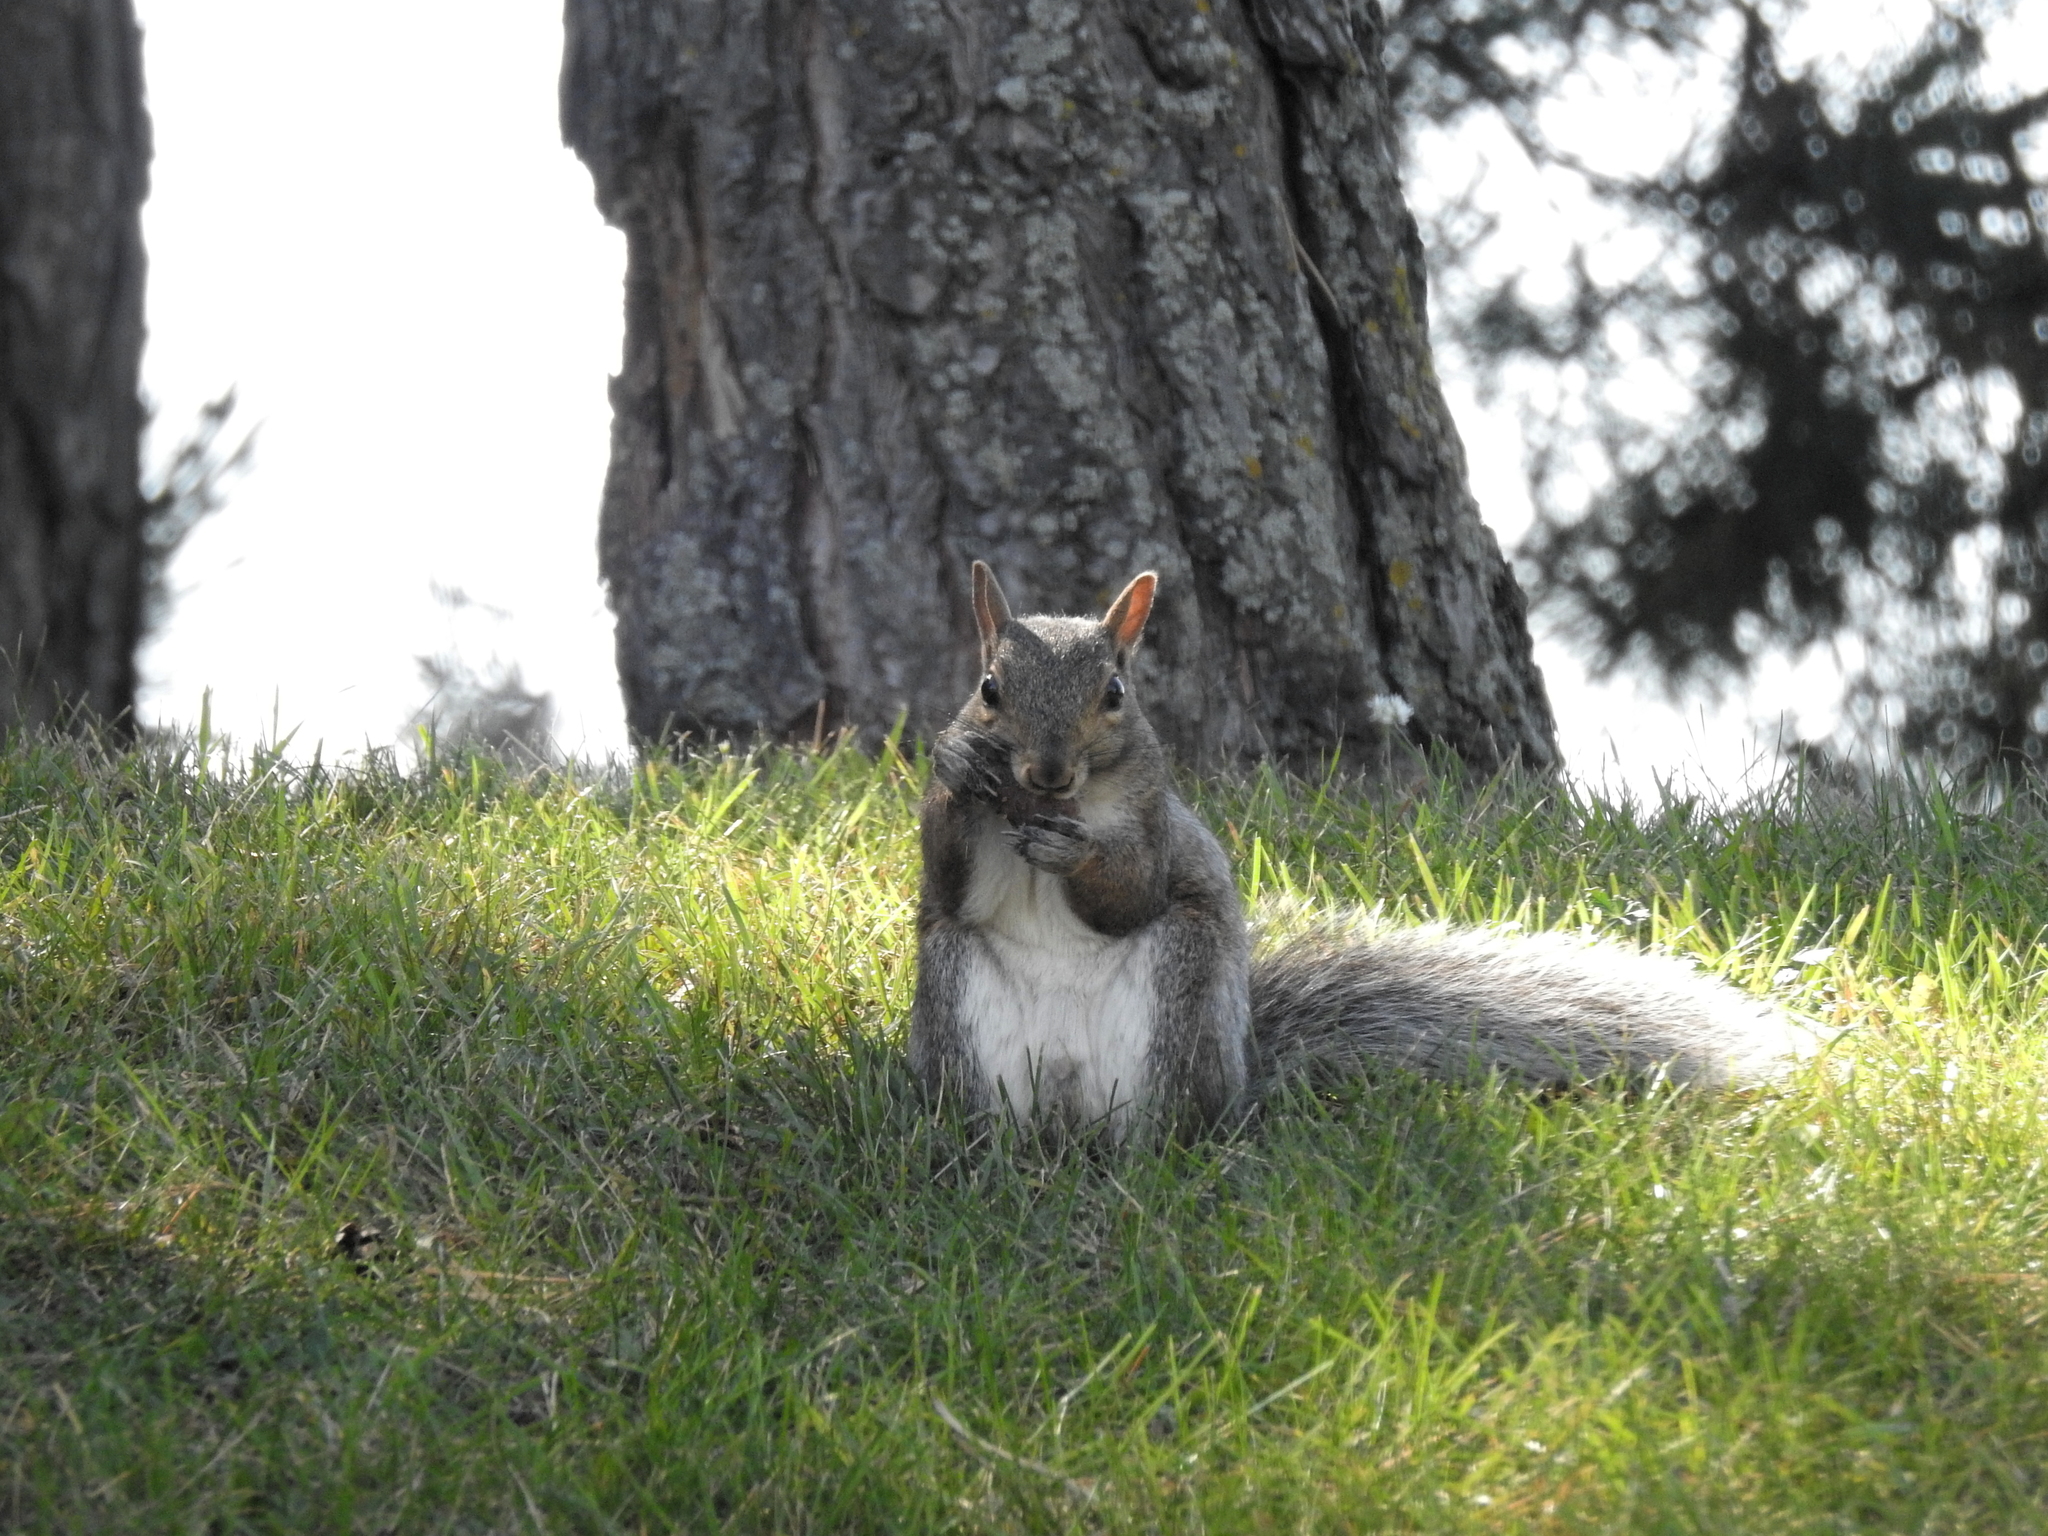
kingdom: Animalia
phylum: Chordata
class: Mammalia
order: Rodentia
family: Sciuridae
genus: Sciurus
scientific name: Sciurus carolinensis
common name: Eastern gray squirrel
